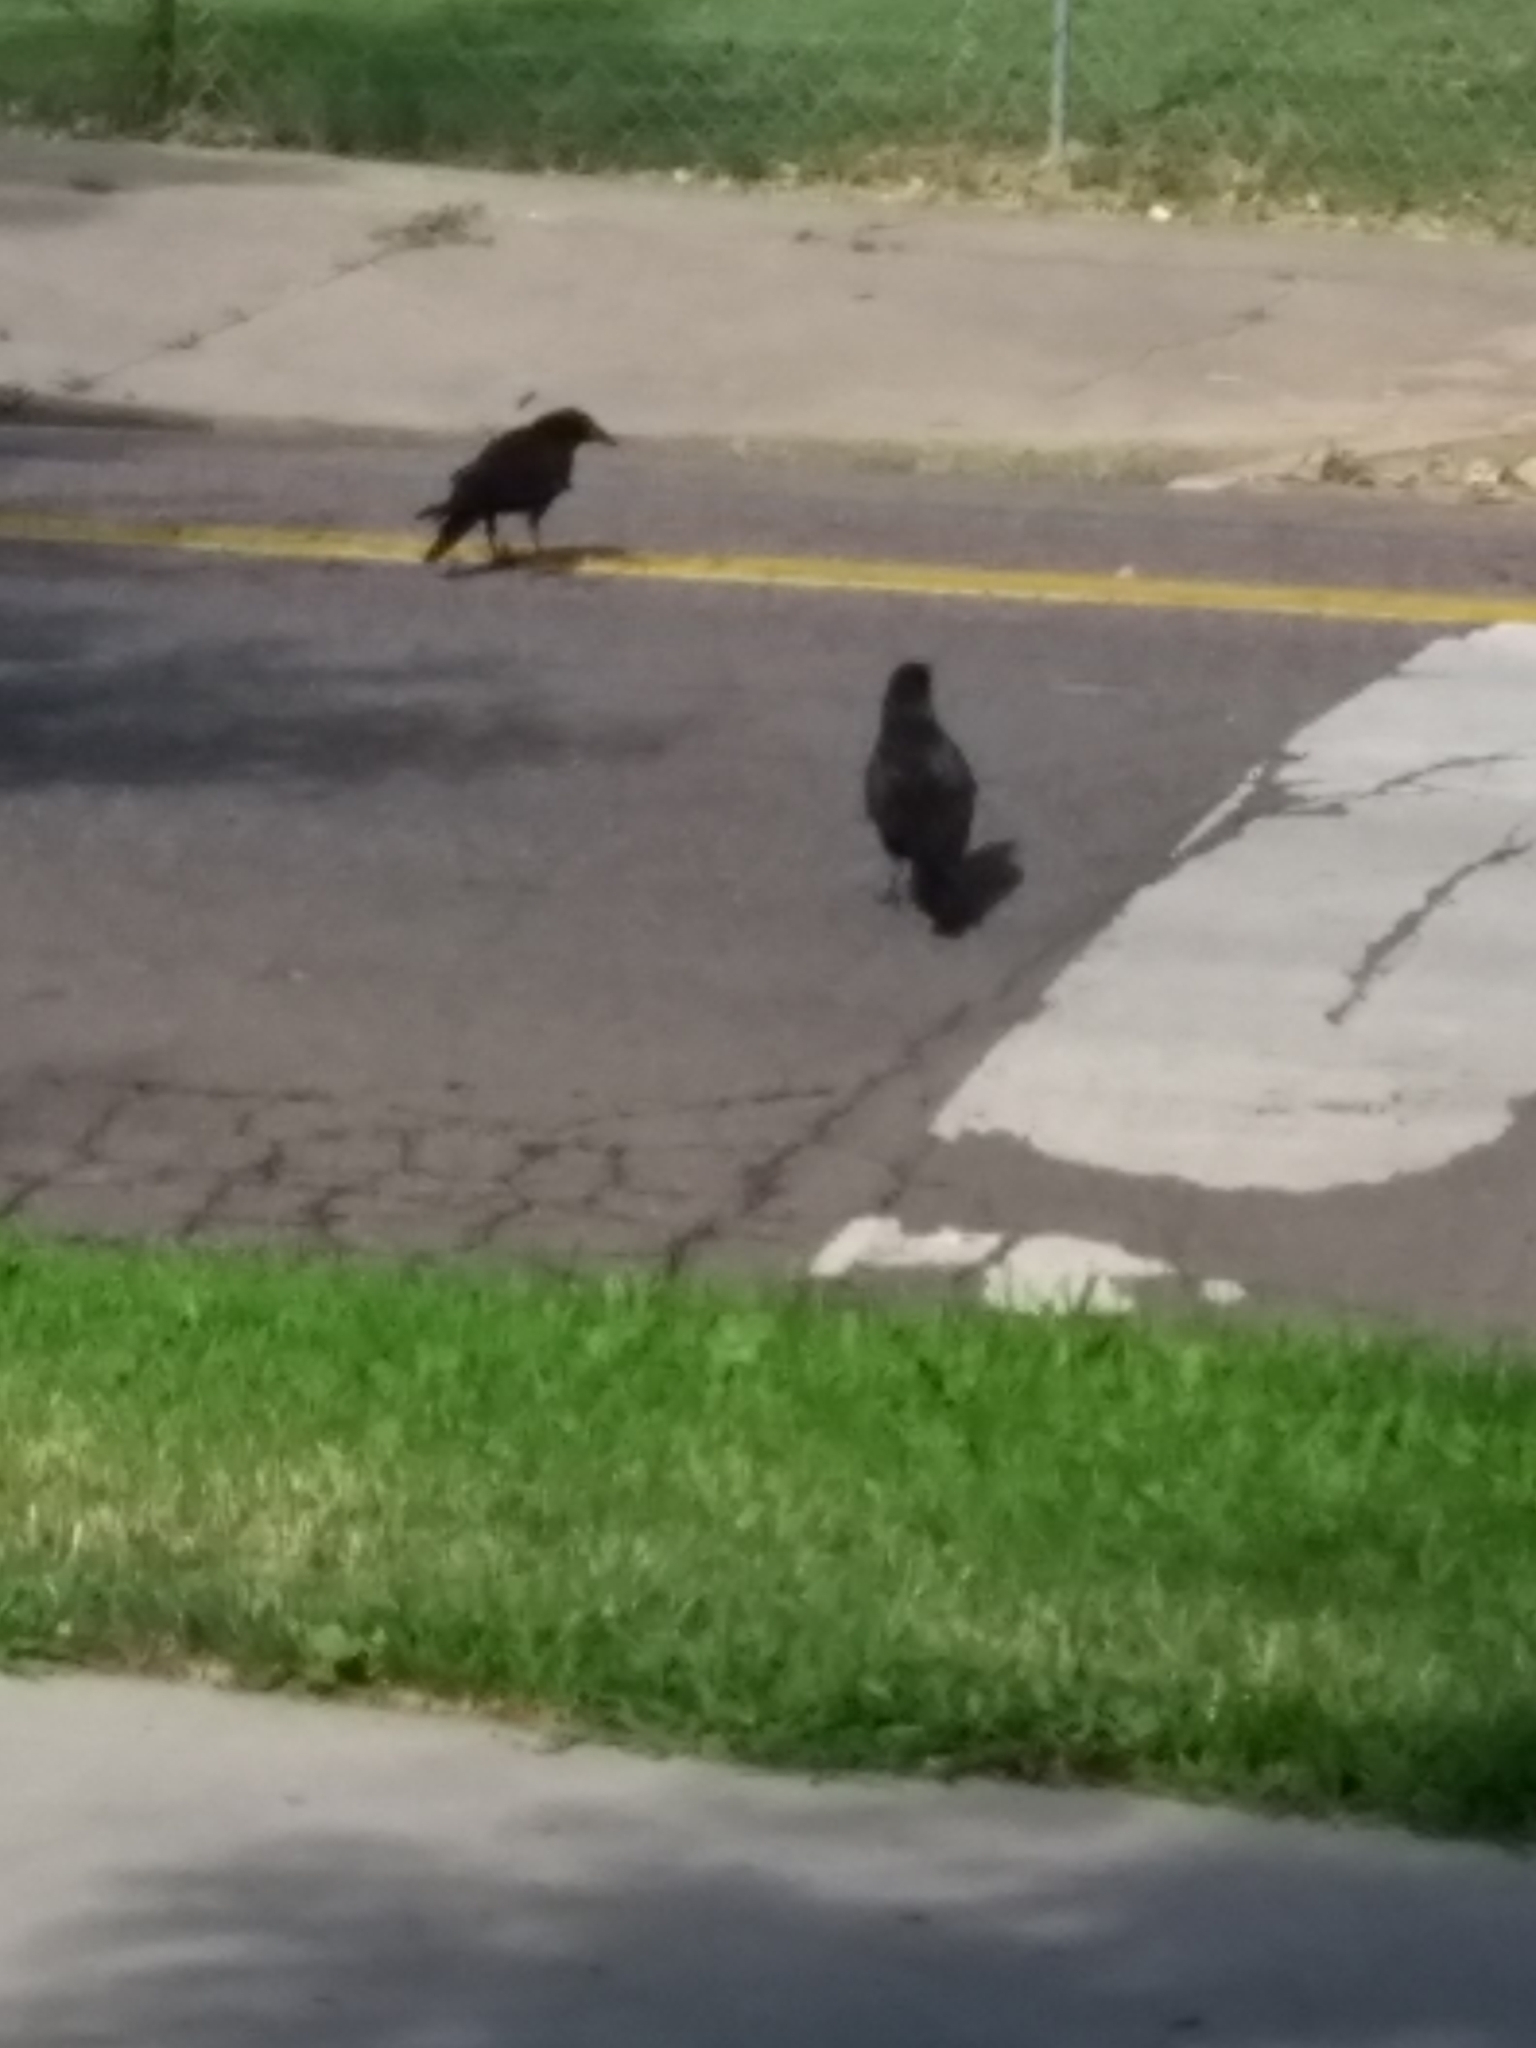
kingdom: Animalia
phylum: Chordata
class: Aves
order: Passeriformes
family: Corvidae
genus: Corvus
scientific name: Corvus brachyrhynchos
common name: American crow
